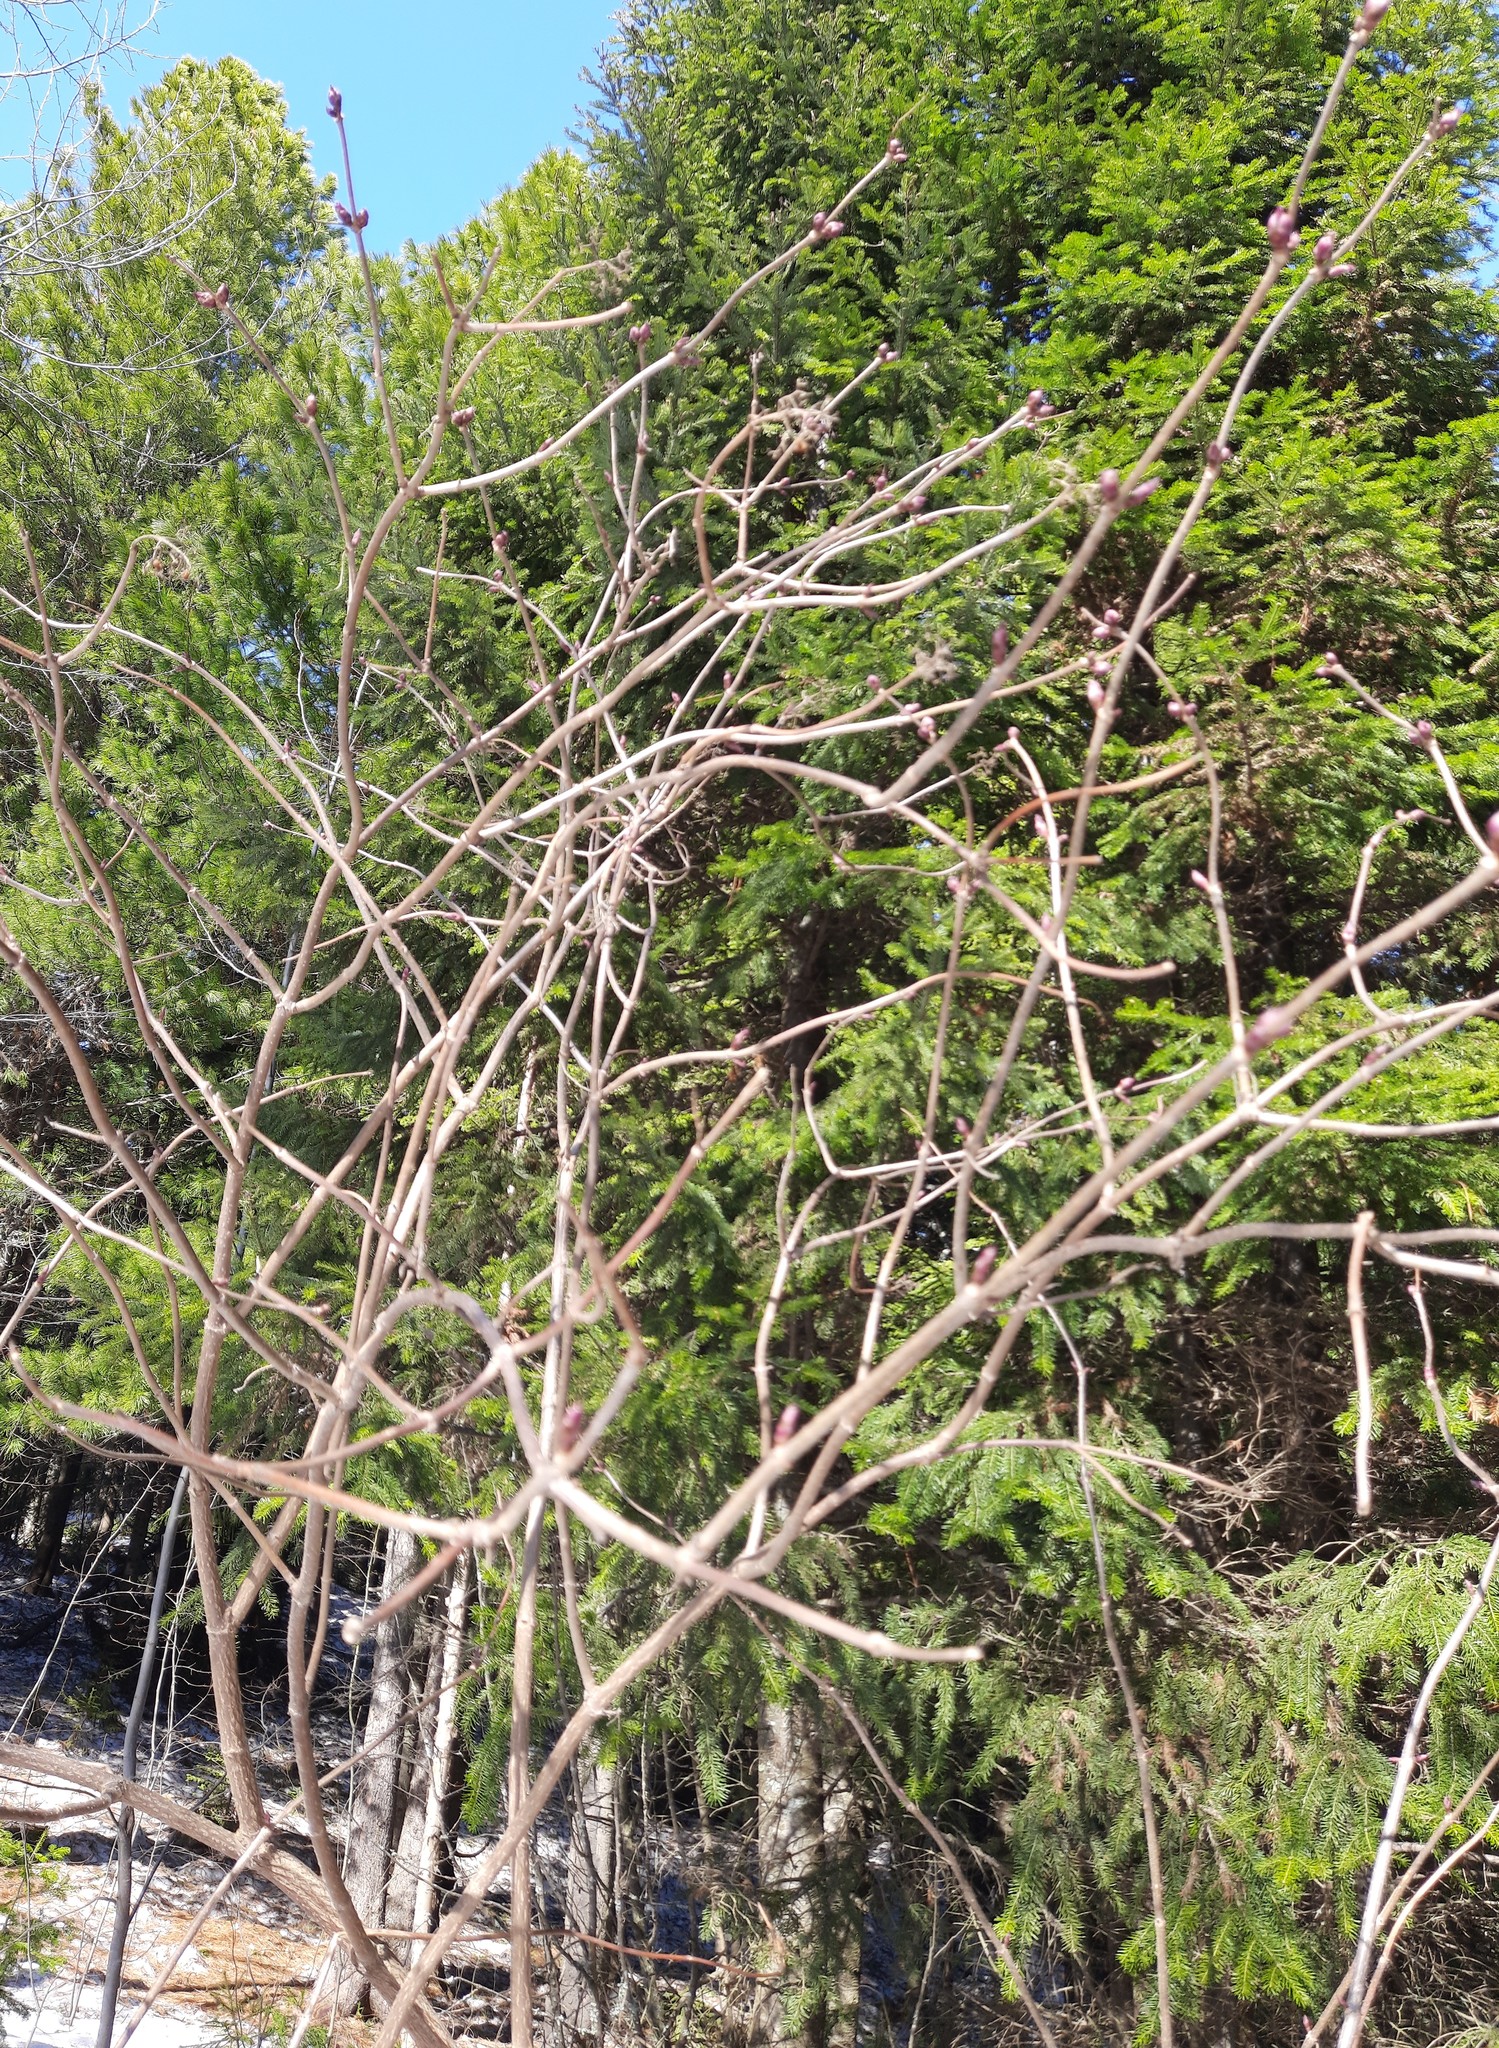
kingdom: Plantae
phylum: Tracheophyta
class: Magnoliopsida
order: Dipsacales
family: Viburnaceae
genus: Sambucus
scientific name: Sambucus sibirica
